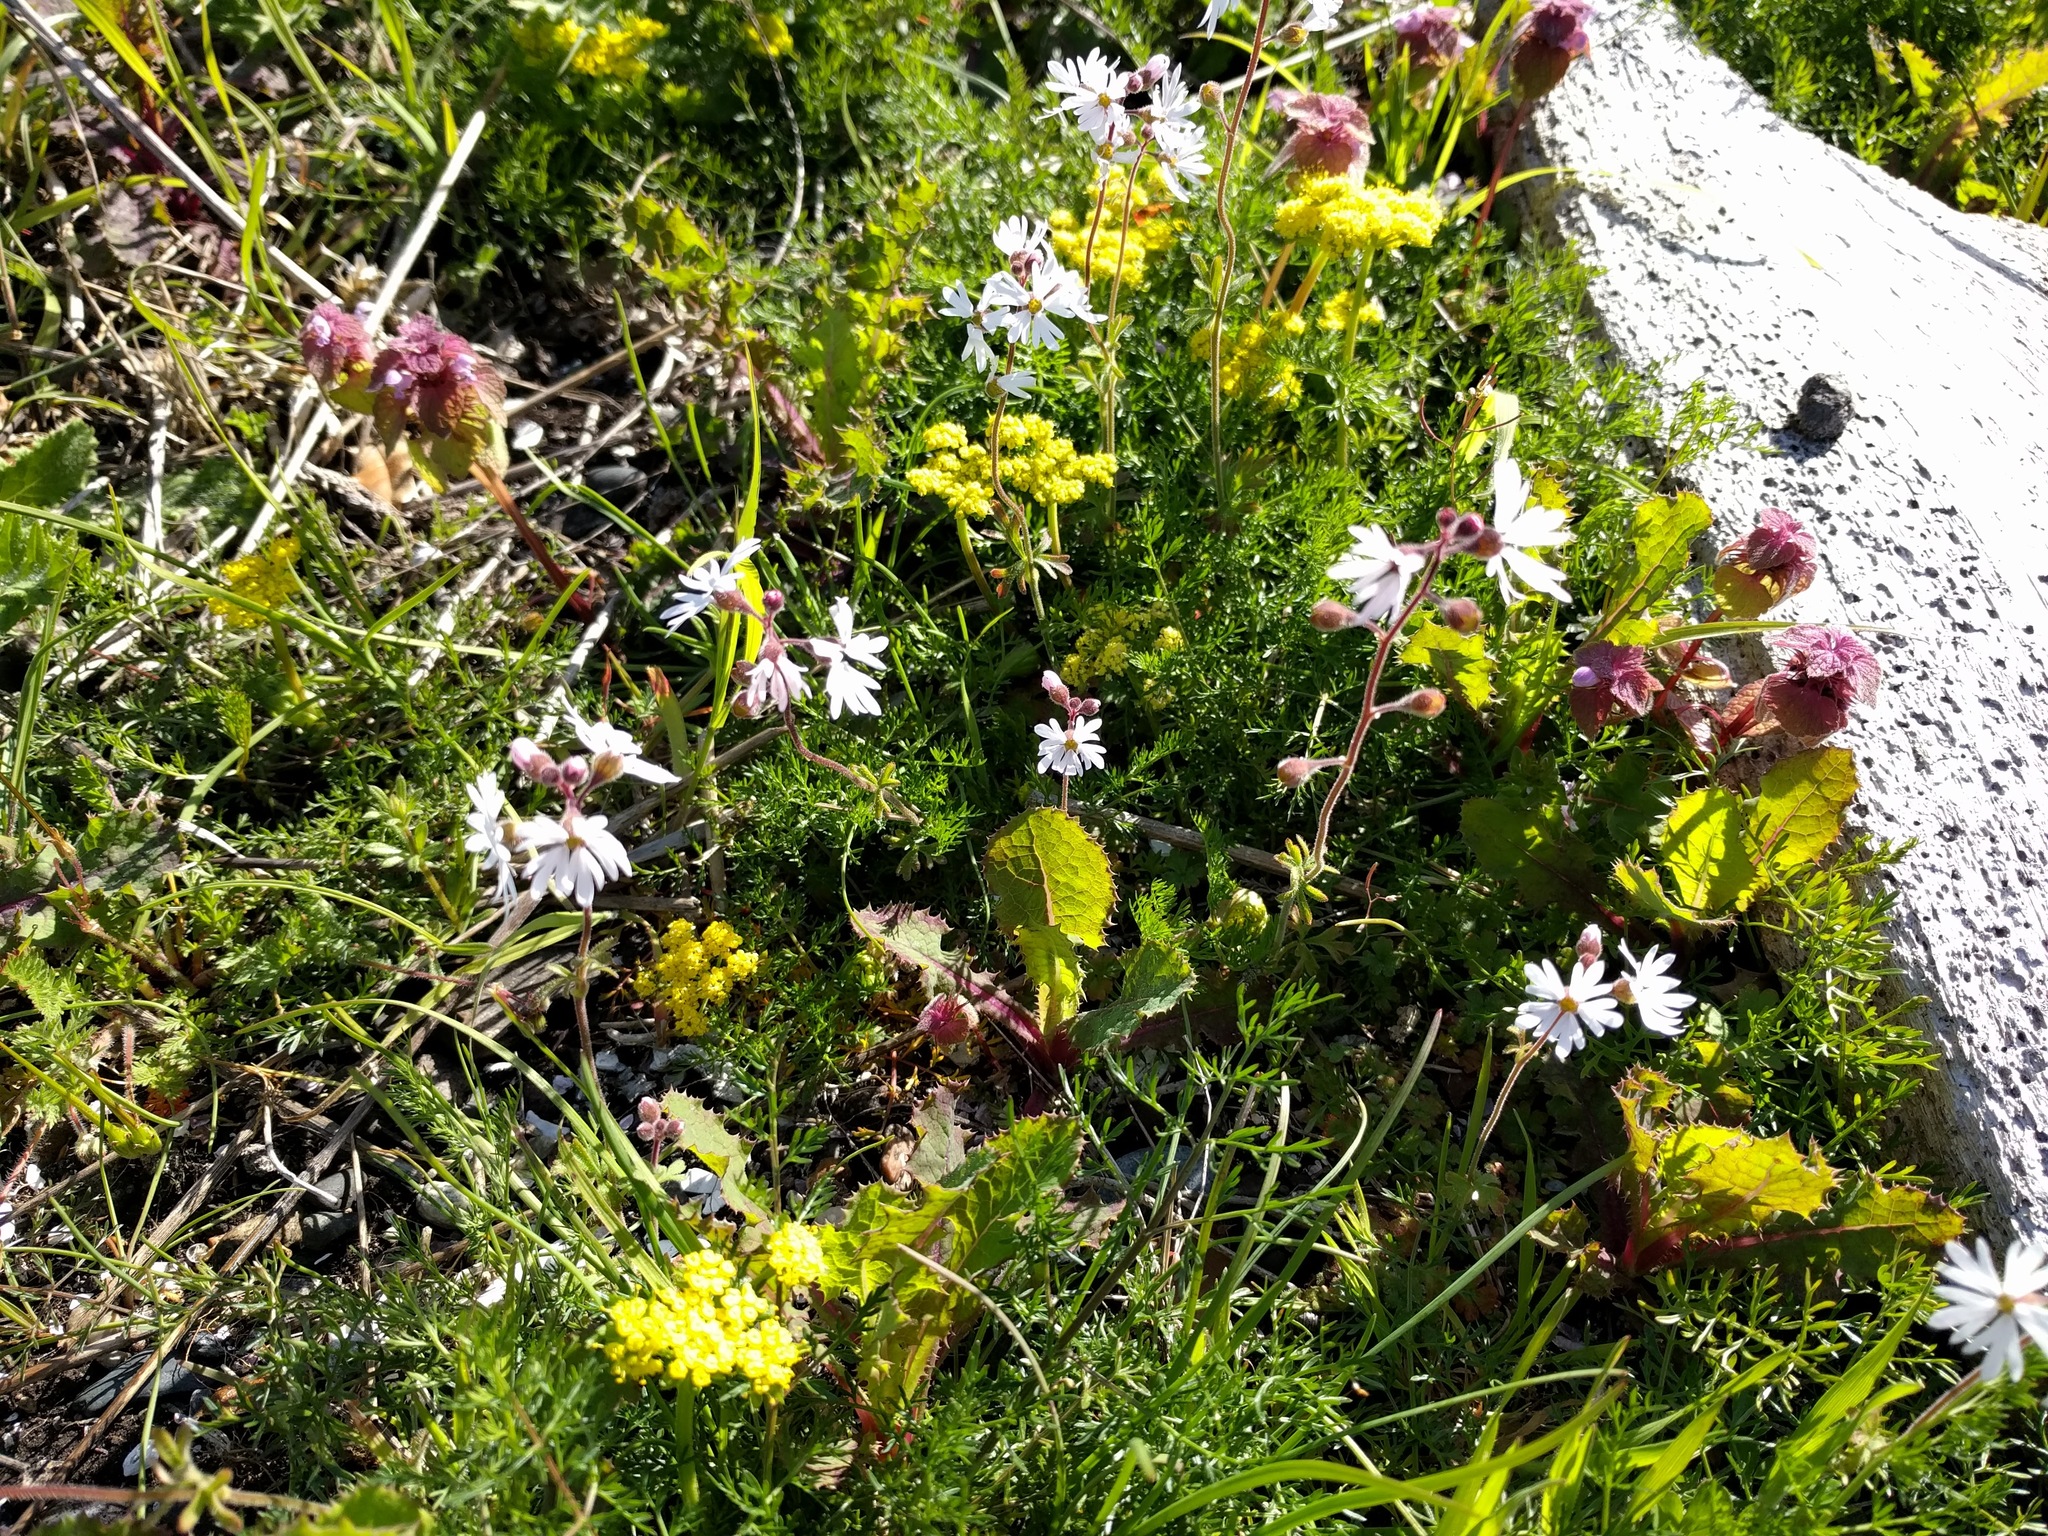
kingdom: Plantae
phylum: Tracheophyta
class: Magnoliopsida
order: Lamiales
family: Lamiaceae
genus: Lamium
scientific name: Lamium purpureum
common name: Red dead-nettle
